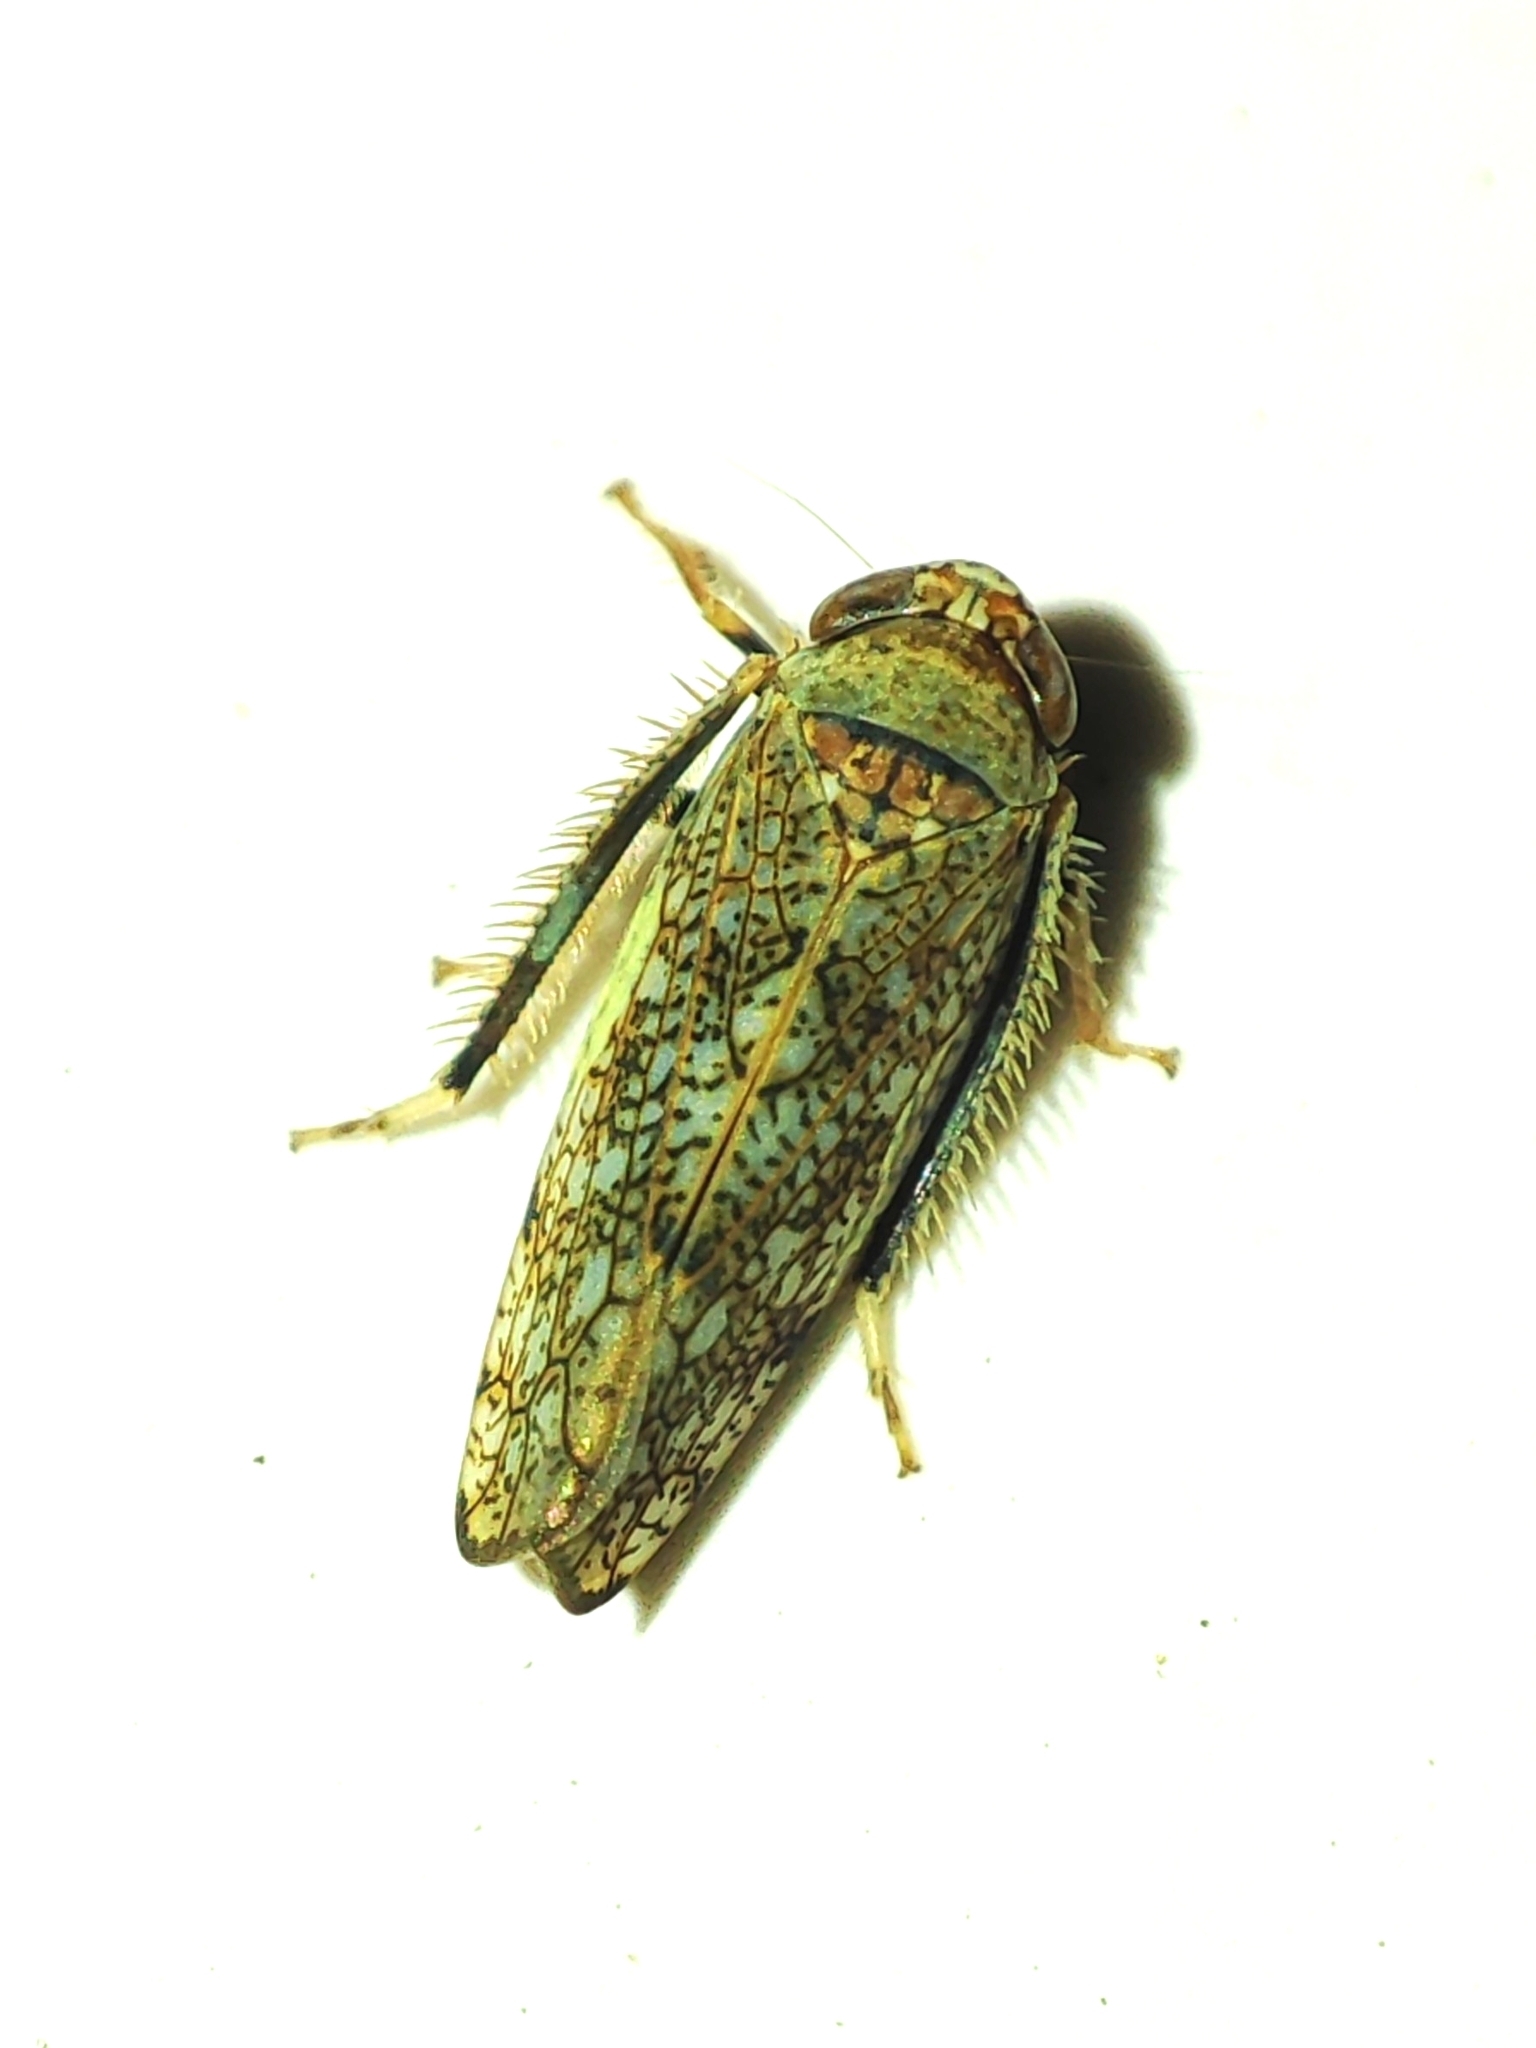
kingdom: Animalia
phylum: Arthropoda
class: Insecta
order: Hemiptera
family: Cicadellidae
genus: Orientus
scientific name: Orientus ishidae
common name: Japanese leafhopper
